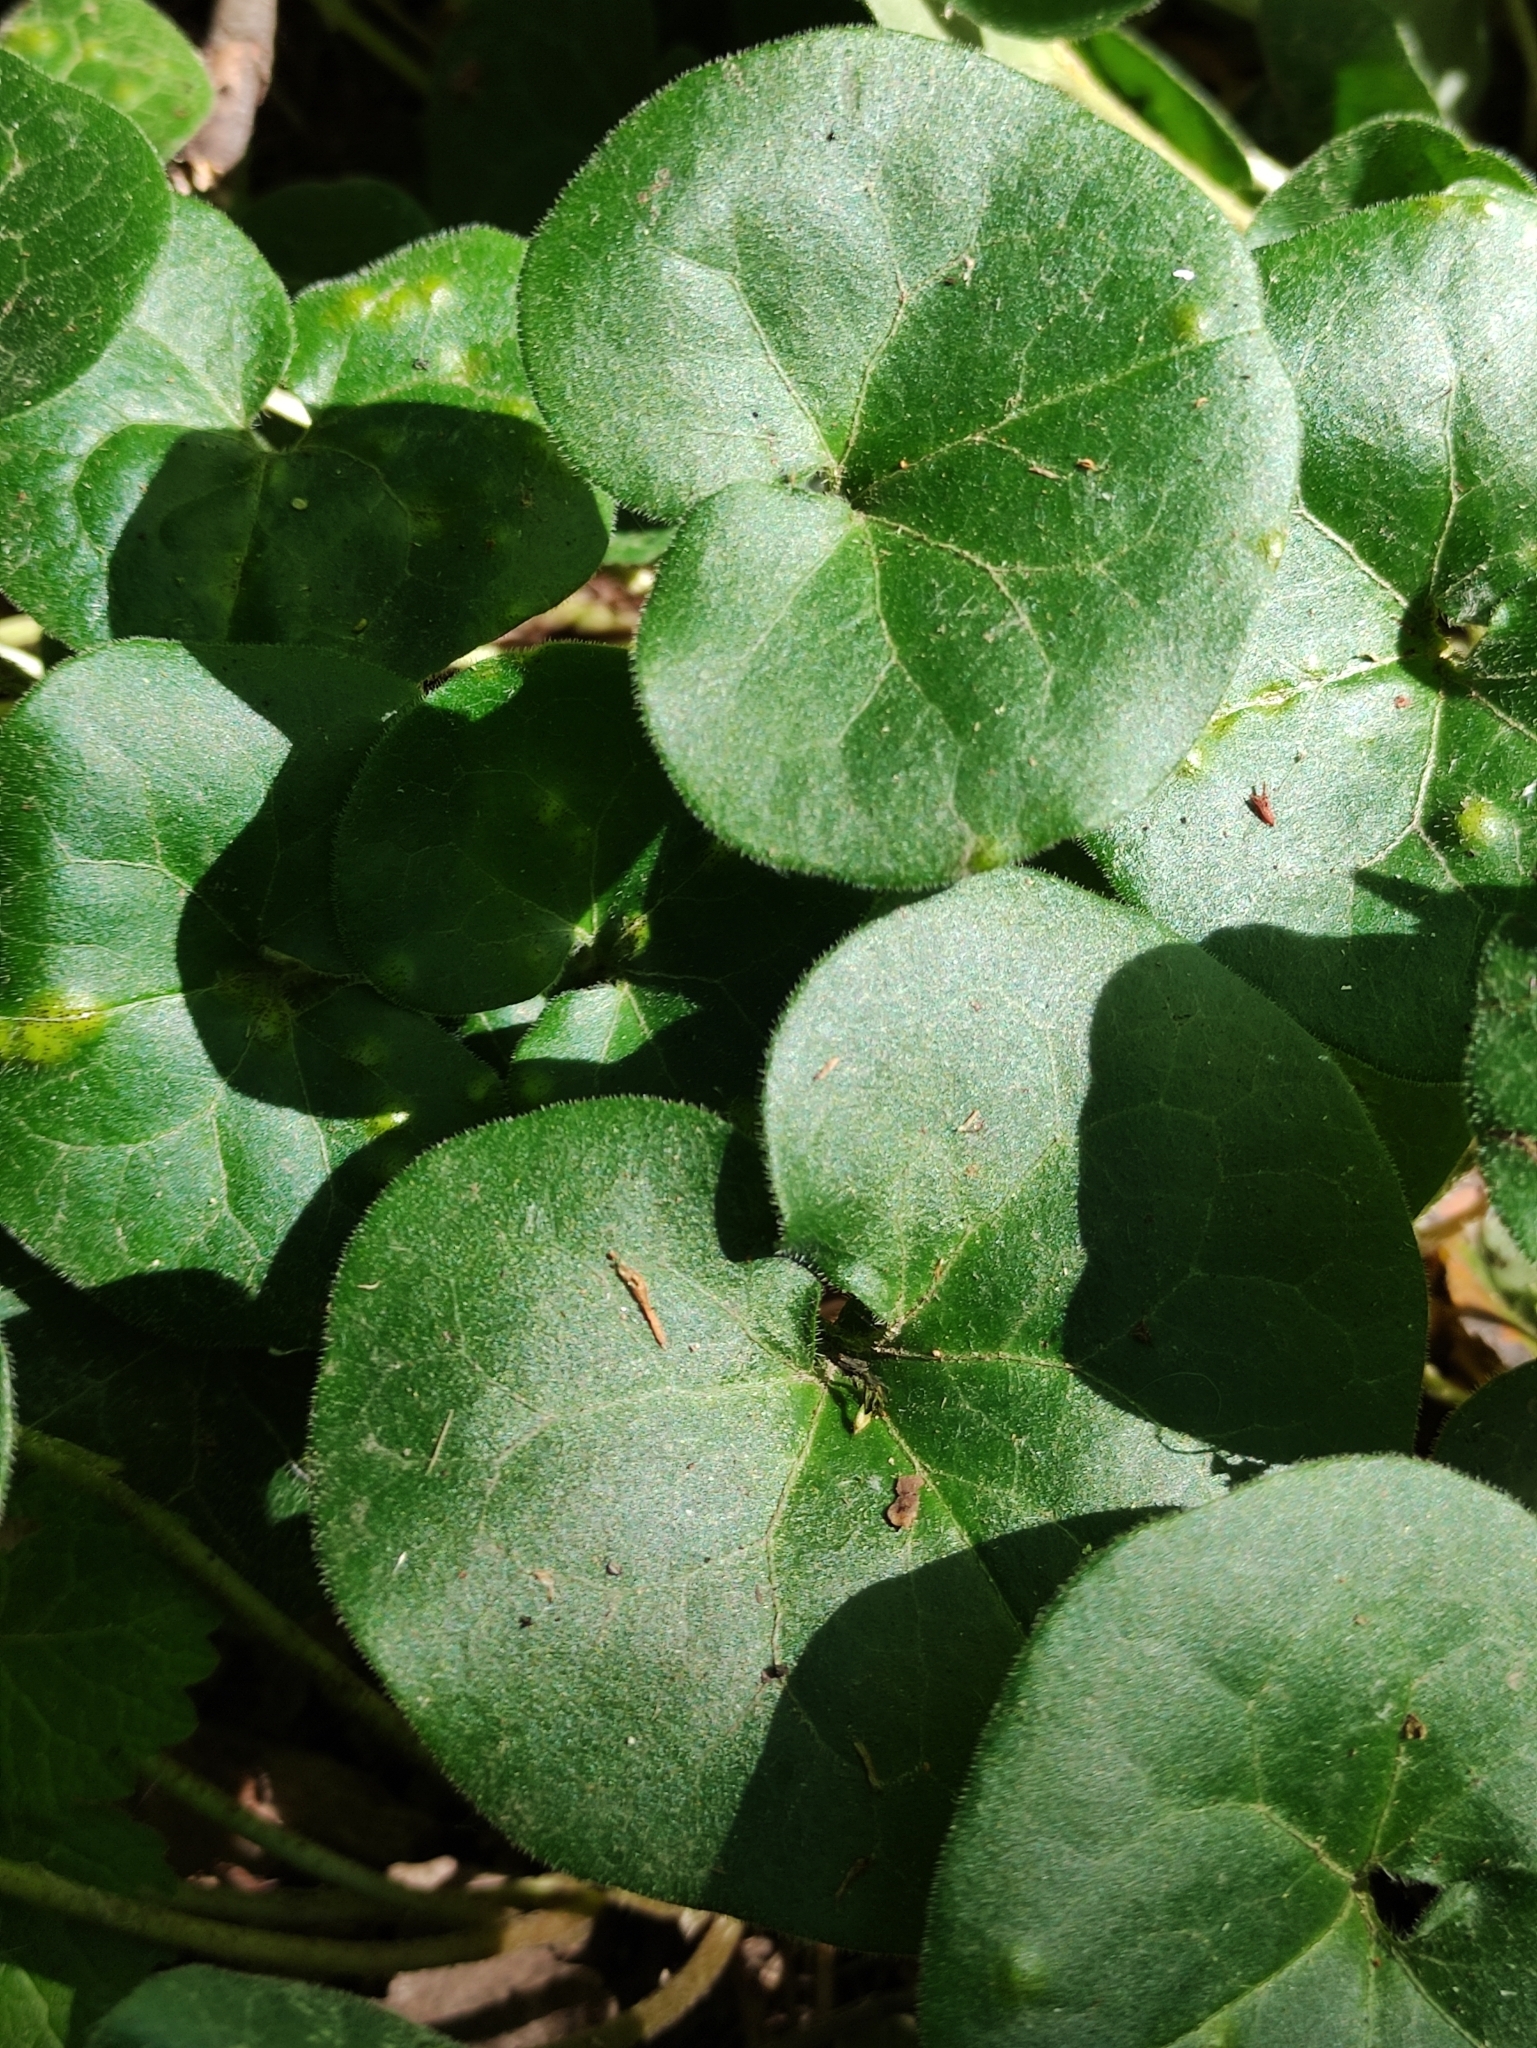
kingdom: Plantae
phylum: Tracheophyta
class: Magnoliopsida
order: Piperales
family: Aristolochiaceae
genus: Asarum
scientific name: Asarum europaeum
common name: Asarabacca
